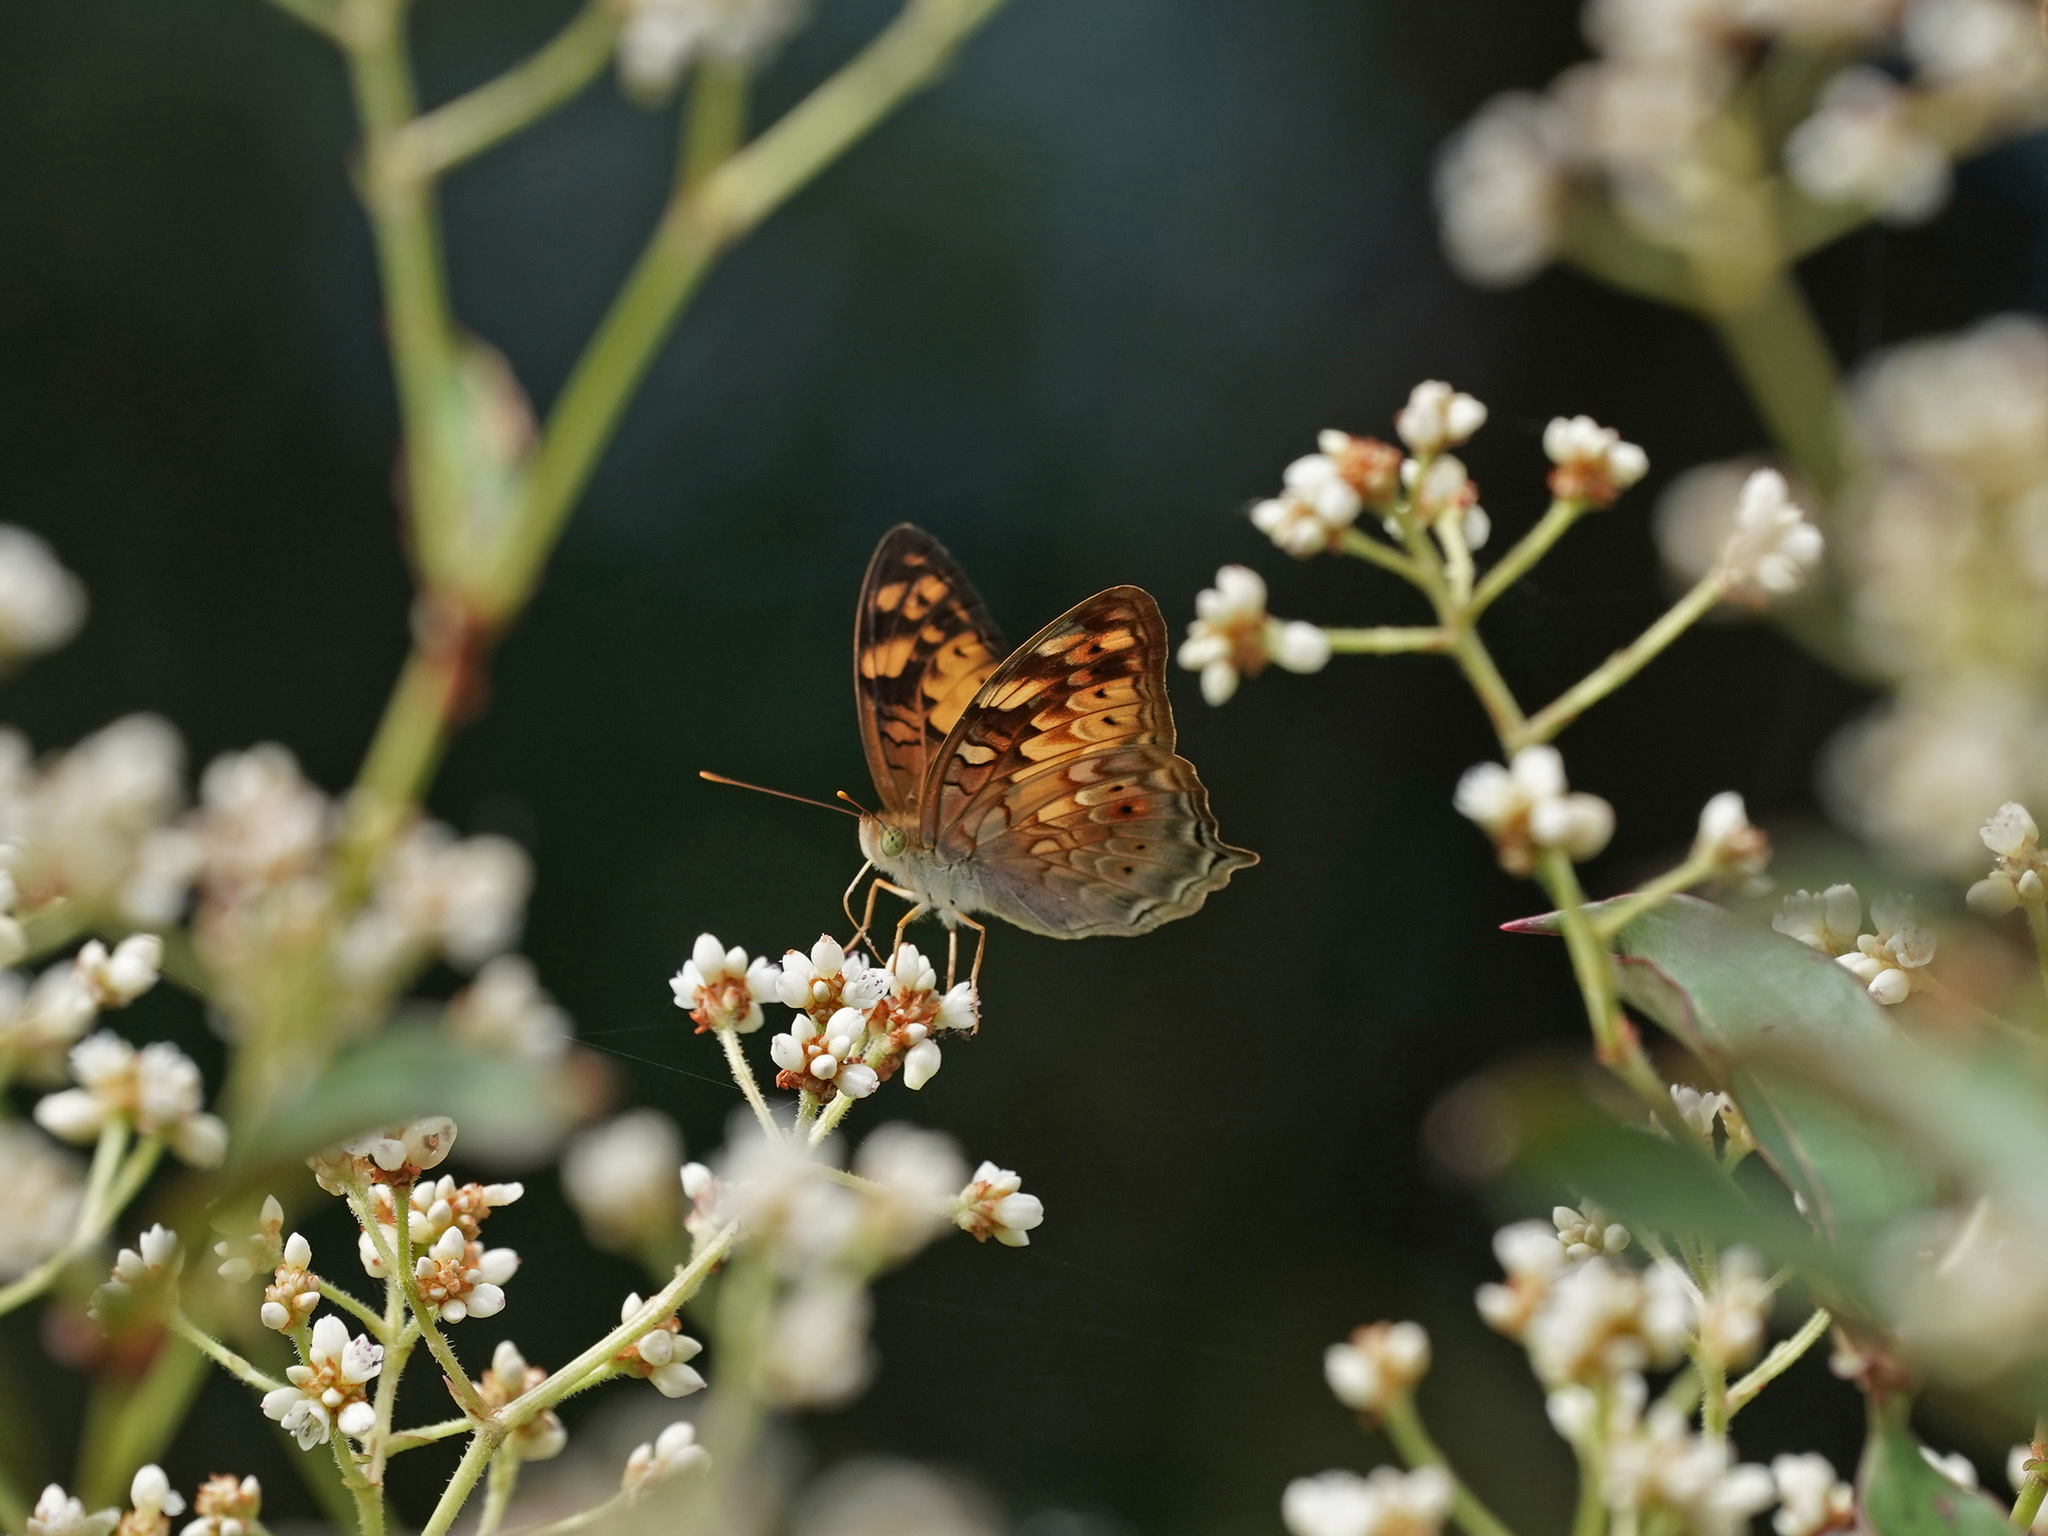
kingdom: Animalia
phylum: Arthropoda
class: Insecta
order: Lepidoptera
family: Nymphalidae
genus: Vagrans
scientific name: Vagrans sinha
